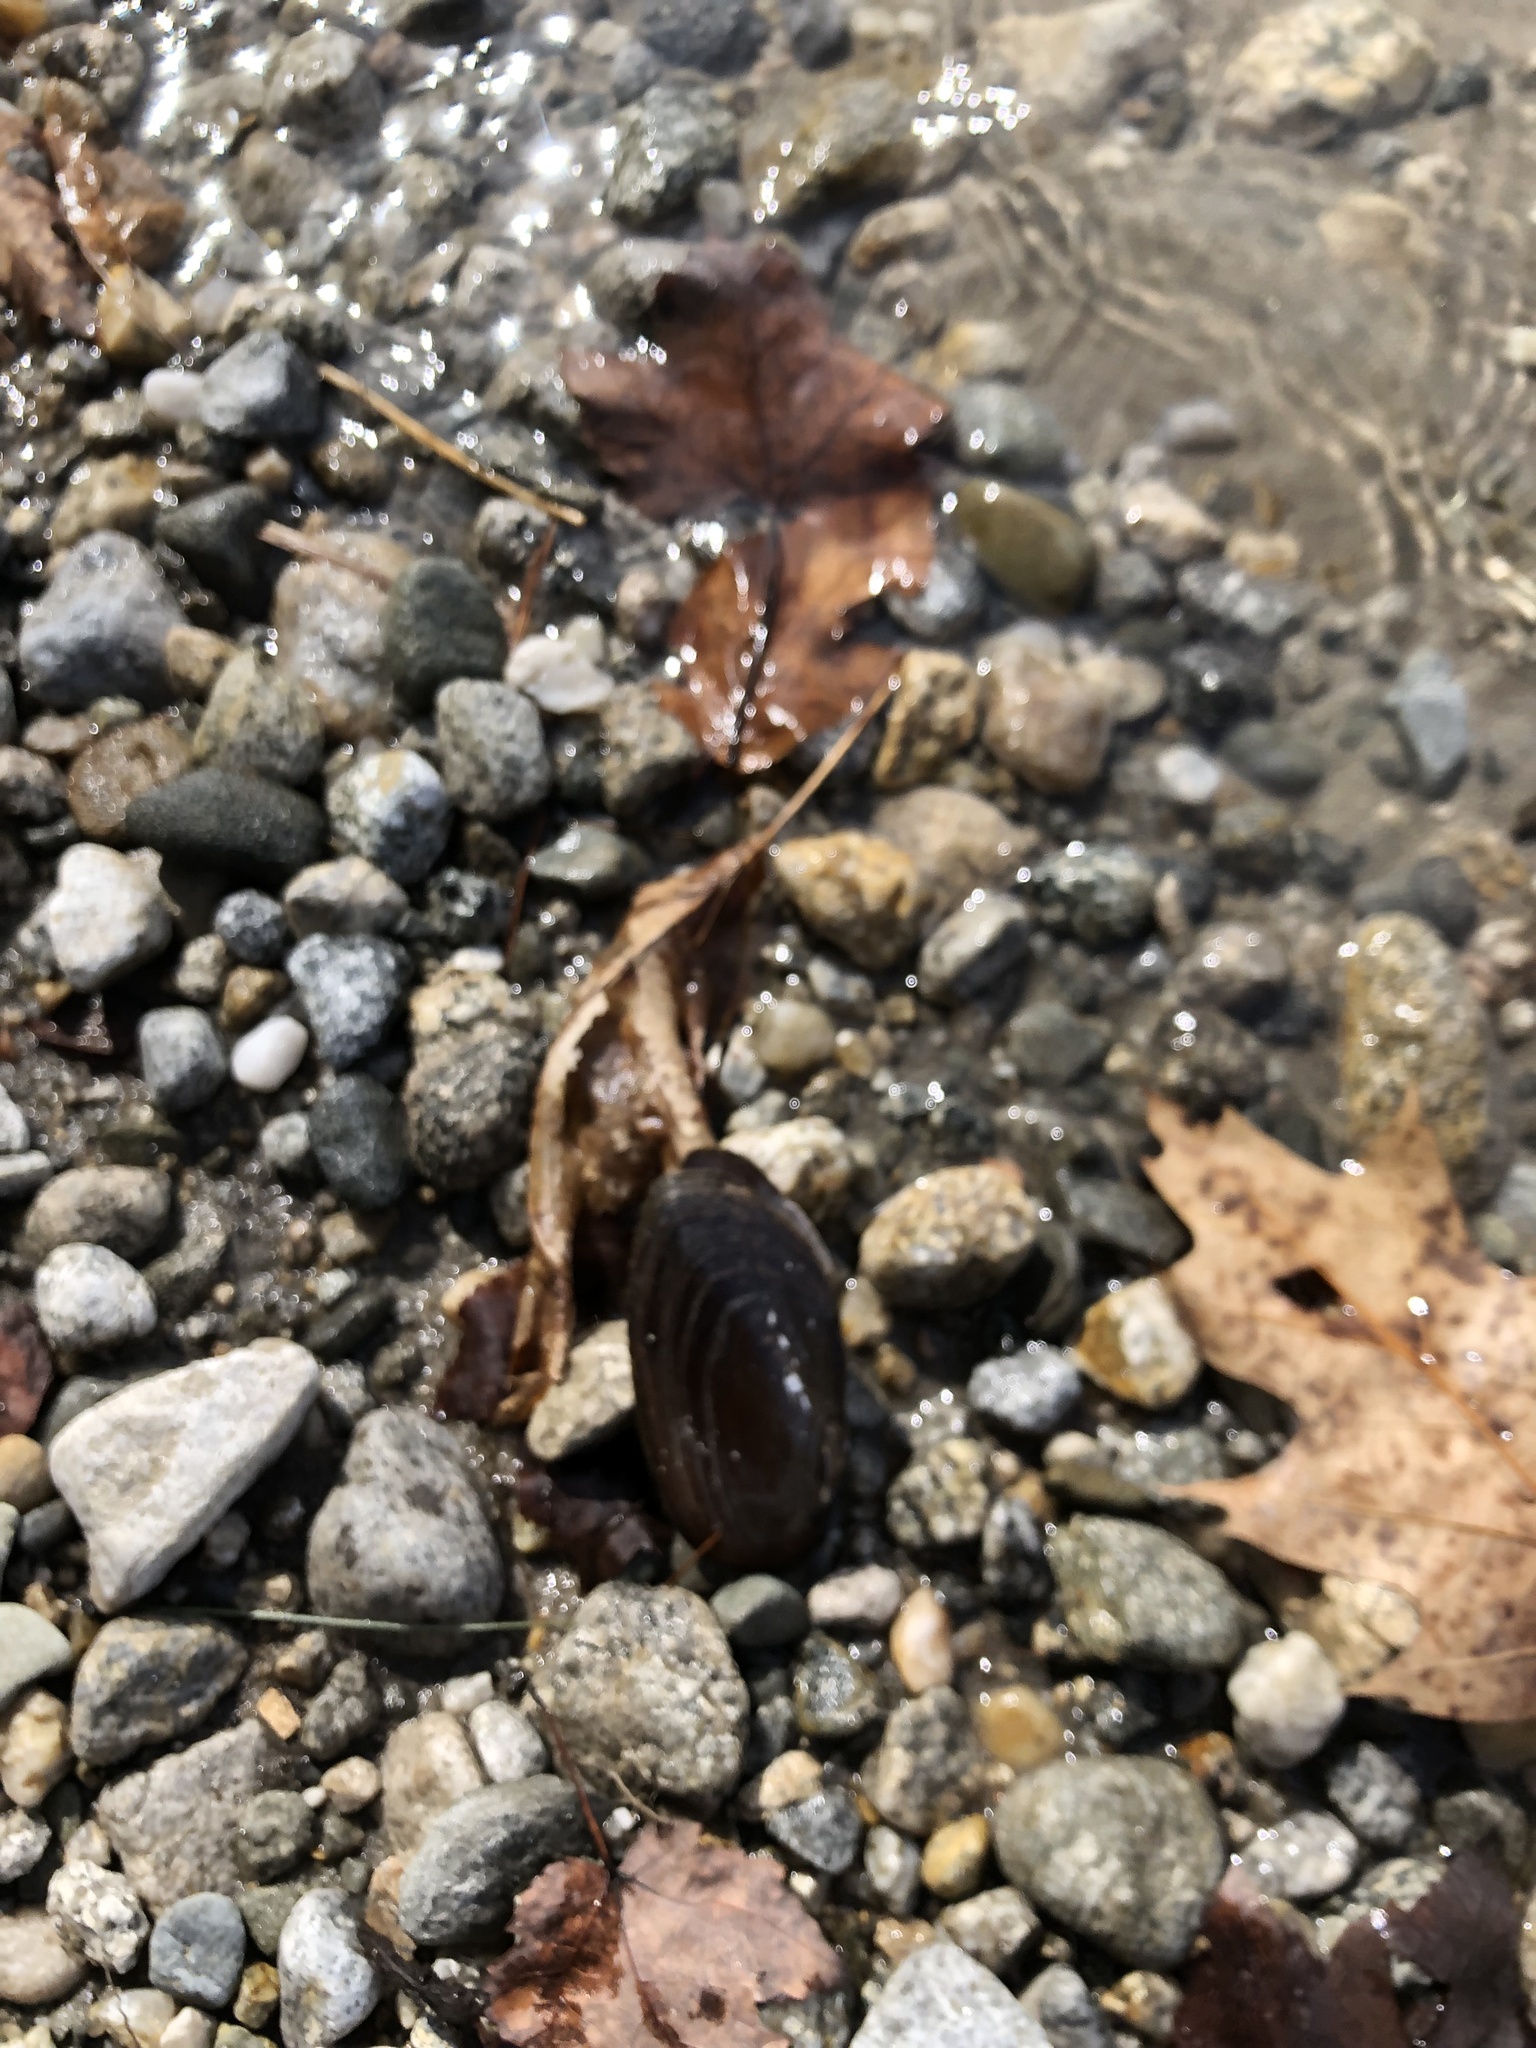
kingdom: Animalia
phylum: Mollusca
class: Bivalvia
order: Unionida
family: Unionidae
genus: Elliptio
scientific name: Elliptio complanata
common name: Eastern elliptio
